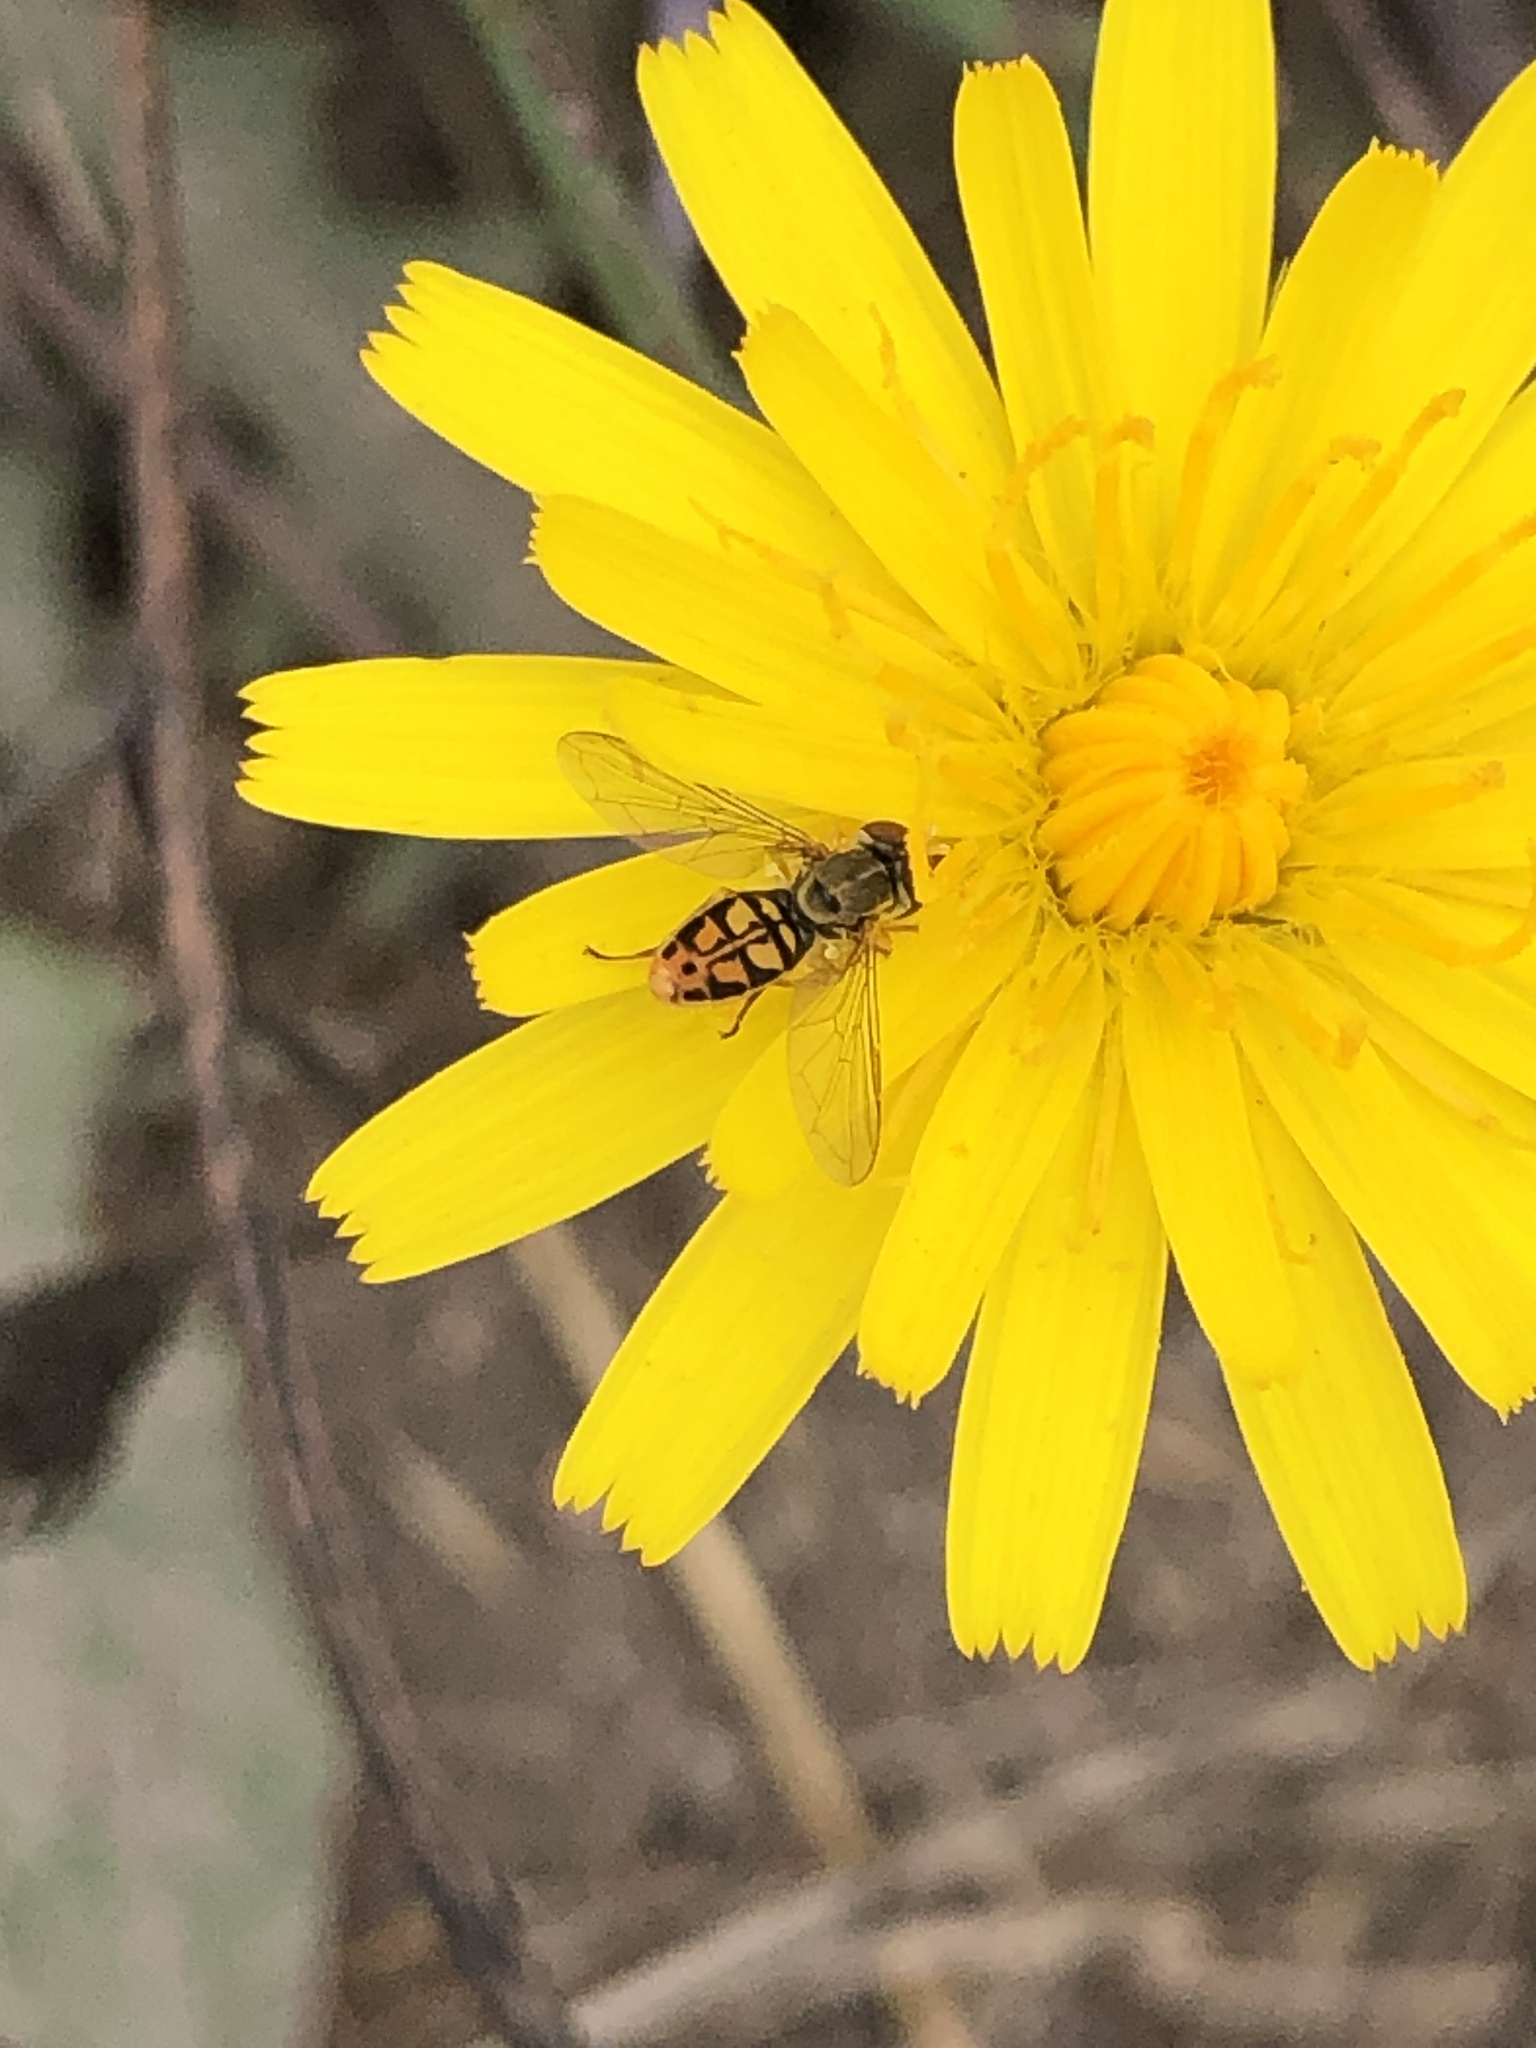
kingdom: Animalia
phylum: Arthropoda
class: Insecta
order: Diptera
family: Syrphidae
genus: Toxomerus
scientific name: Toxomerus marginatus
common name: Syrphid fly
